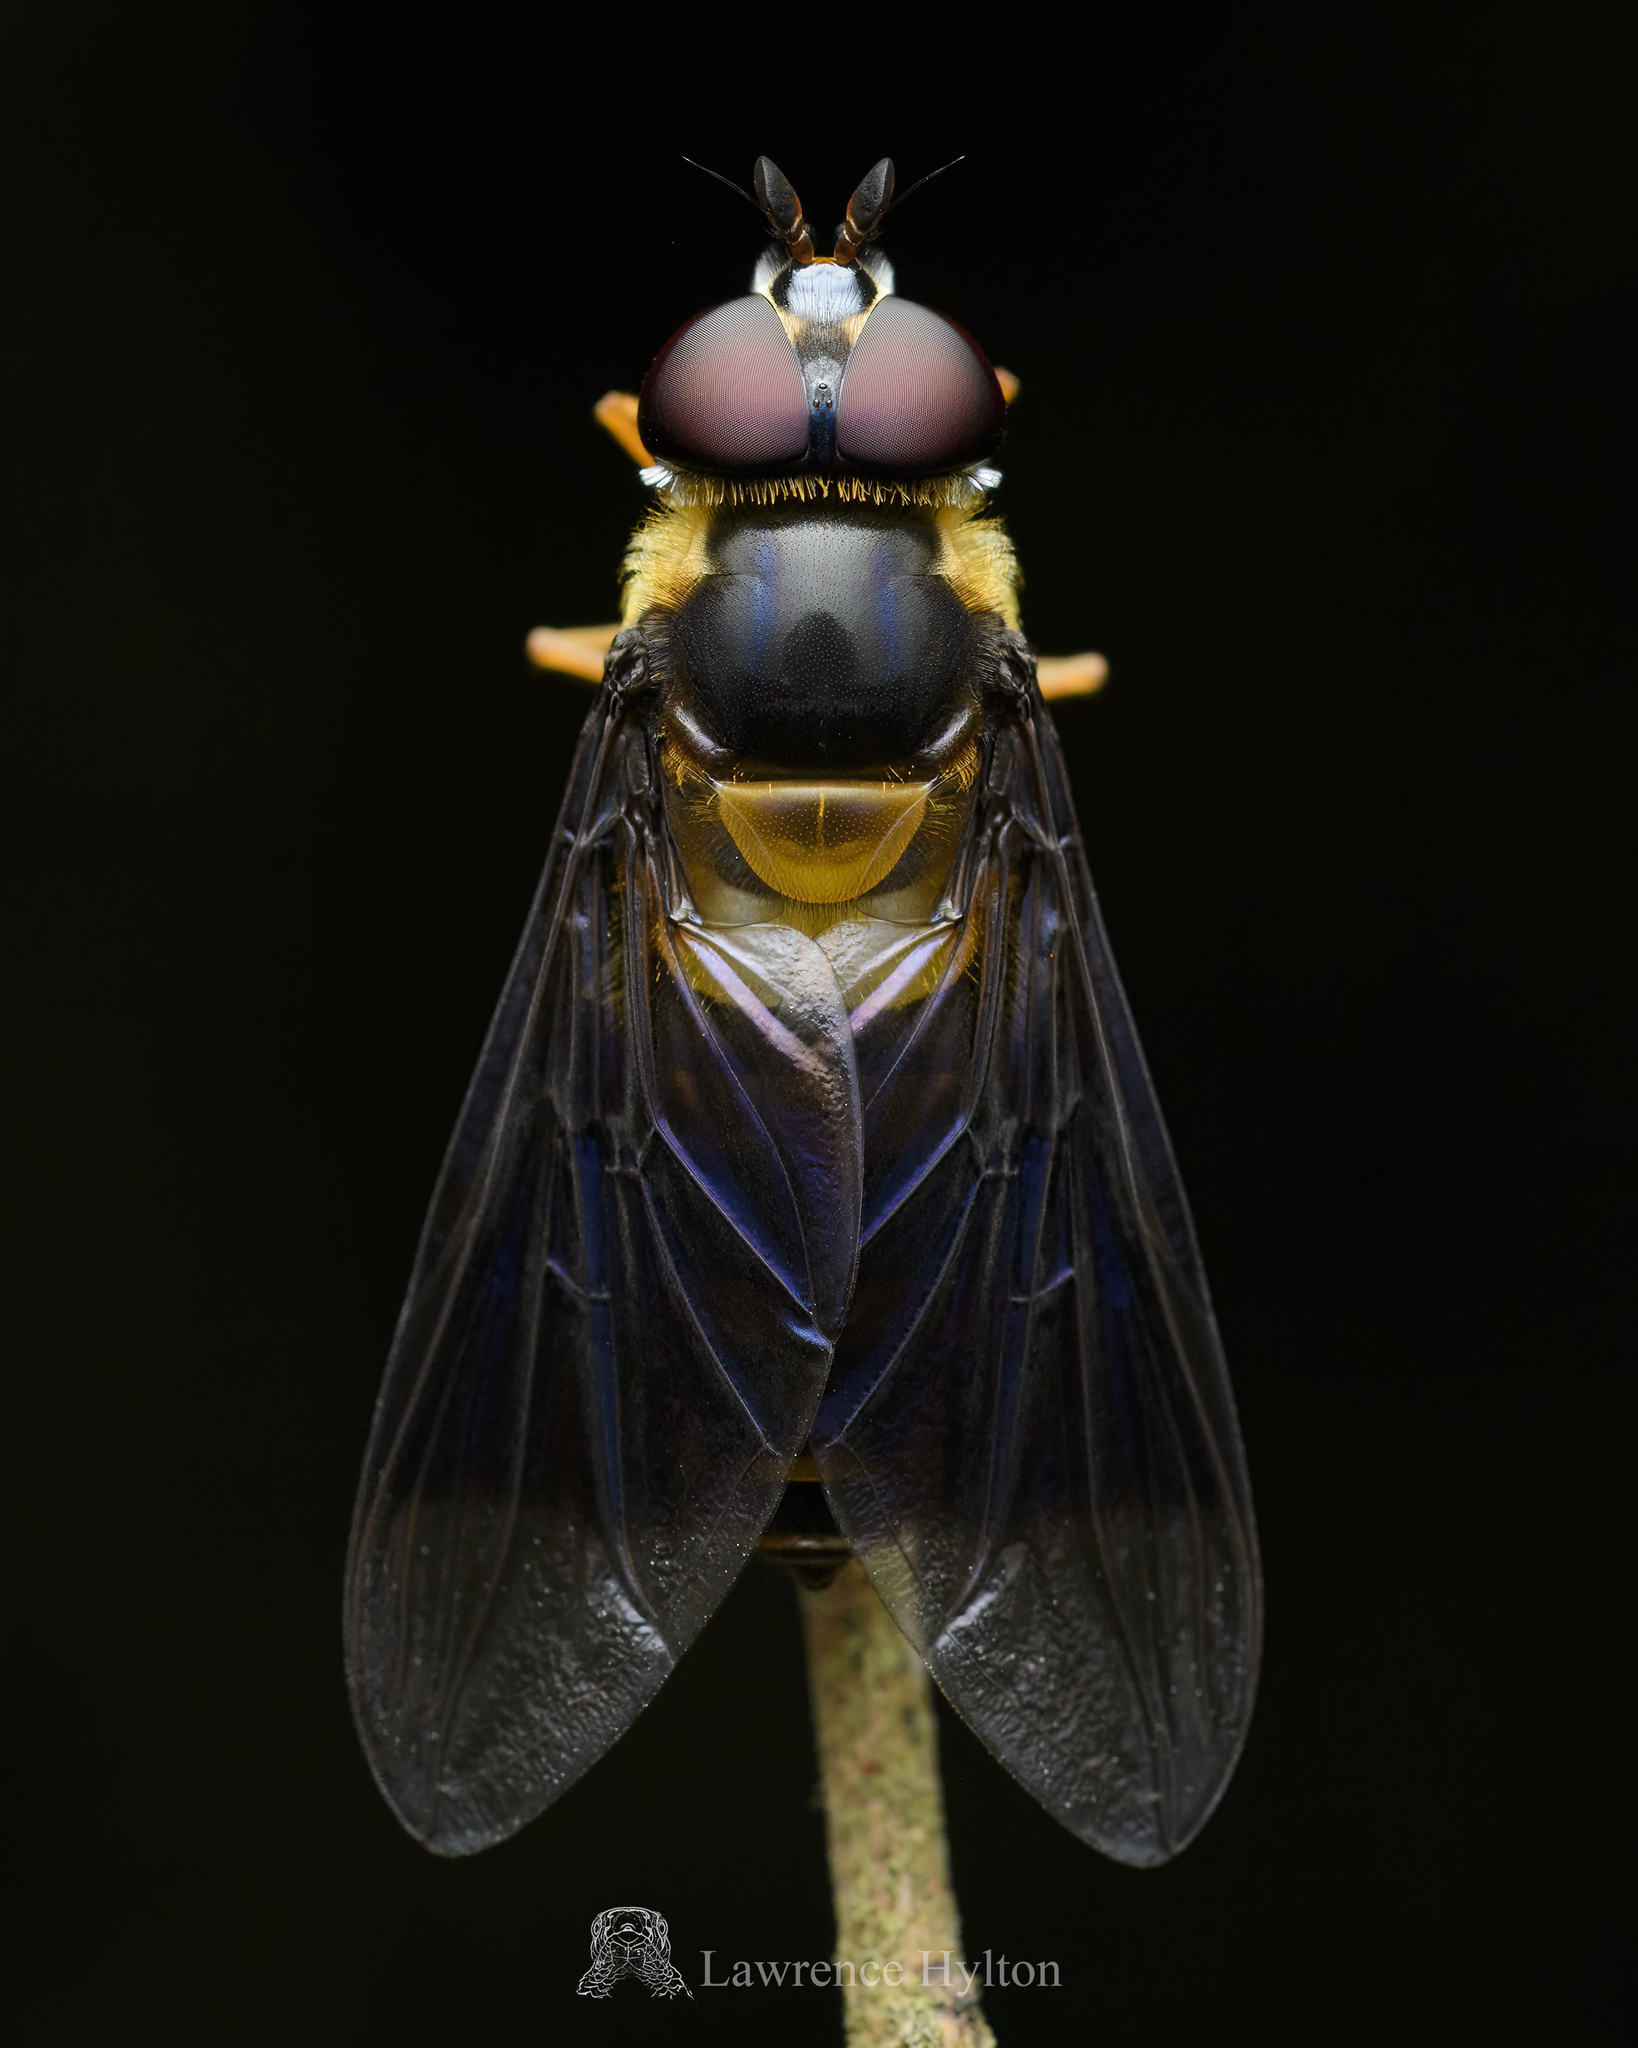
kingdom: Animalia
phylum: Arthropoda
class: Insecta
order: Diptera
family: Syrphidae
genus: Dideopsis
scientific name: Dideopsis aegrota
